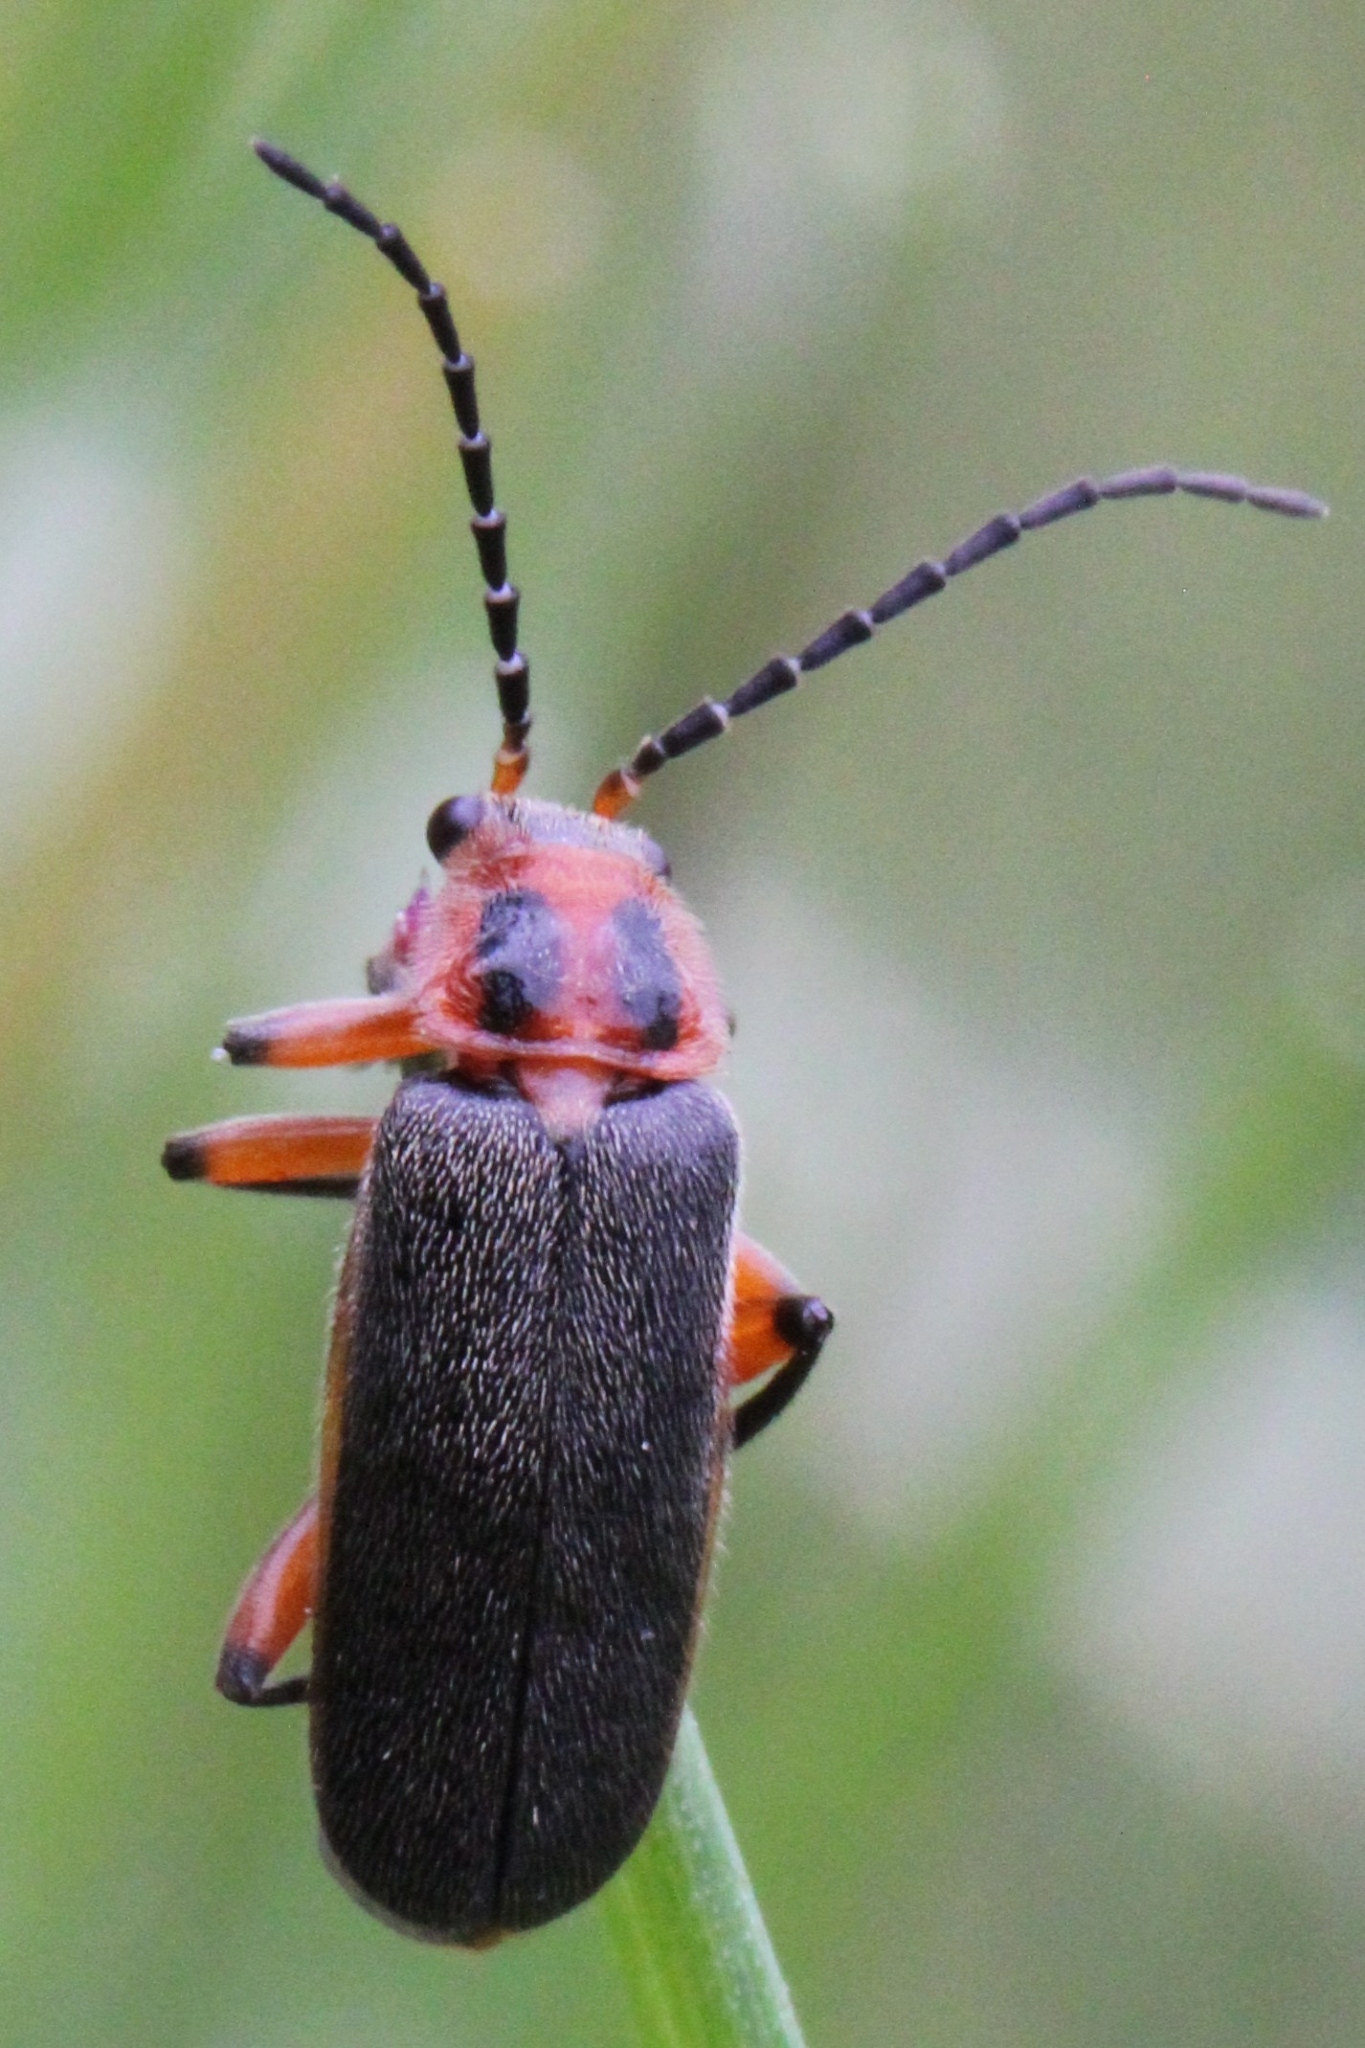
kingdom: Animalia
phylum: Arthropoda
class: Insecta
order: Coleoptera
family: Cantharidae
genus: Atalantycha
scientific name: Atalantycha bilineata
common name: Two-lined leatherwing
